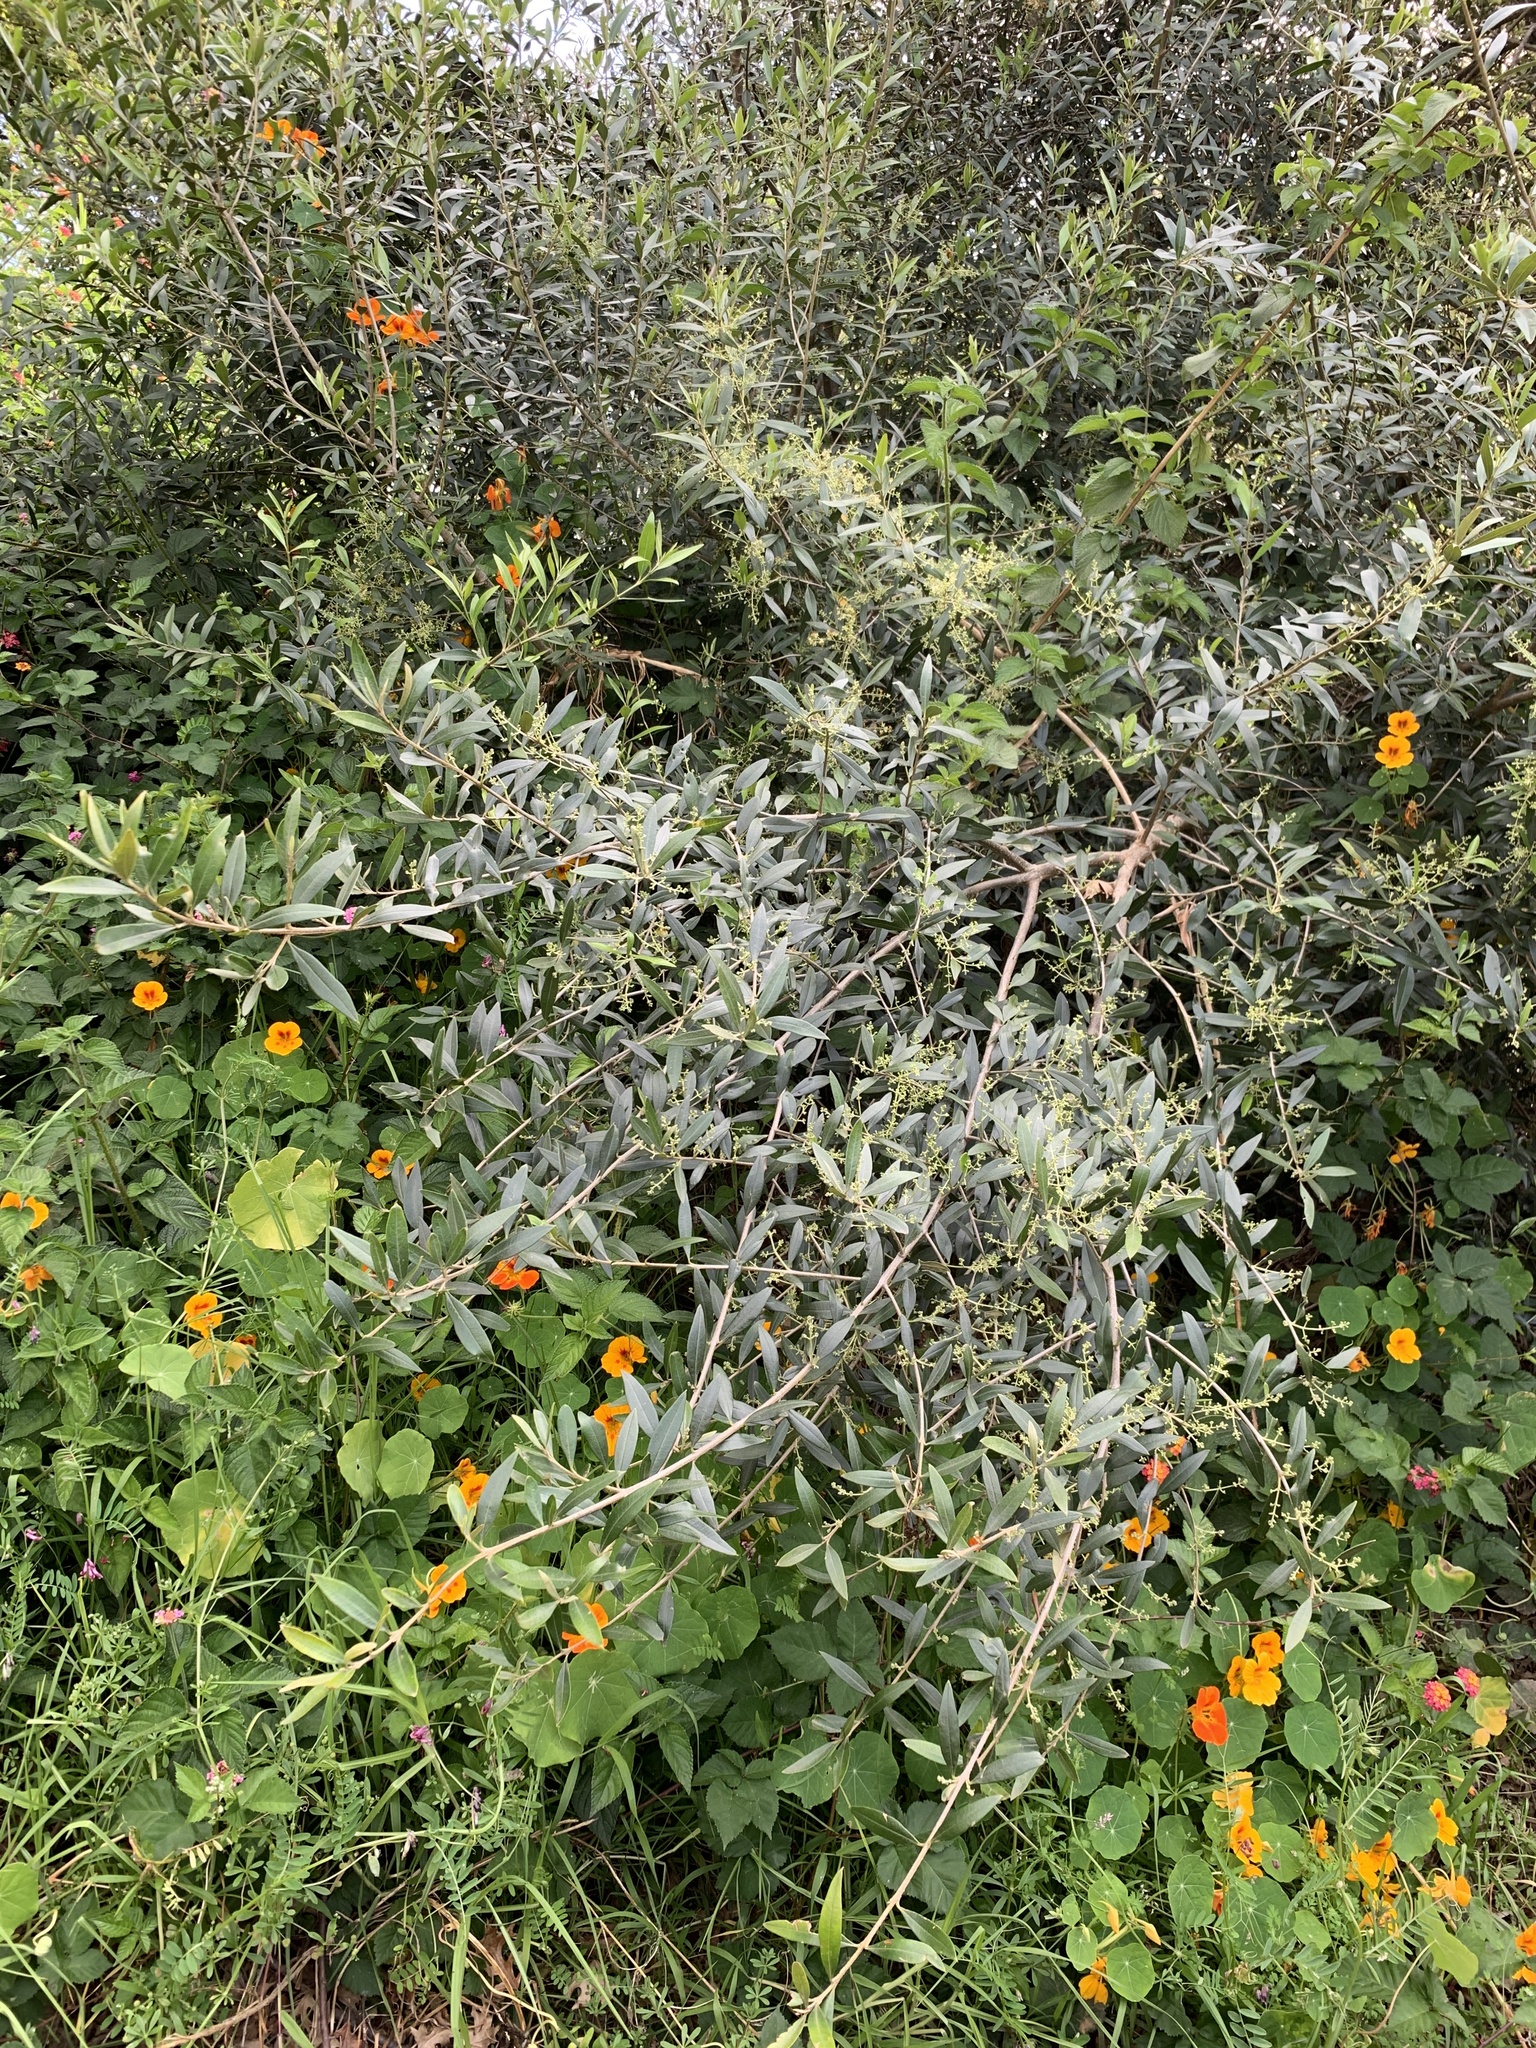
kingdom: Plantae
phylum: Tracheophyta
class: Magnoliopsida
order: Lamiales
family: Oleaceae
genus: Olea
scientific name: Olea europaea
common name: Olive
